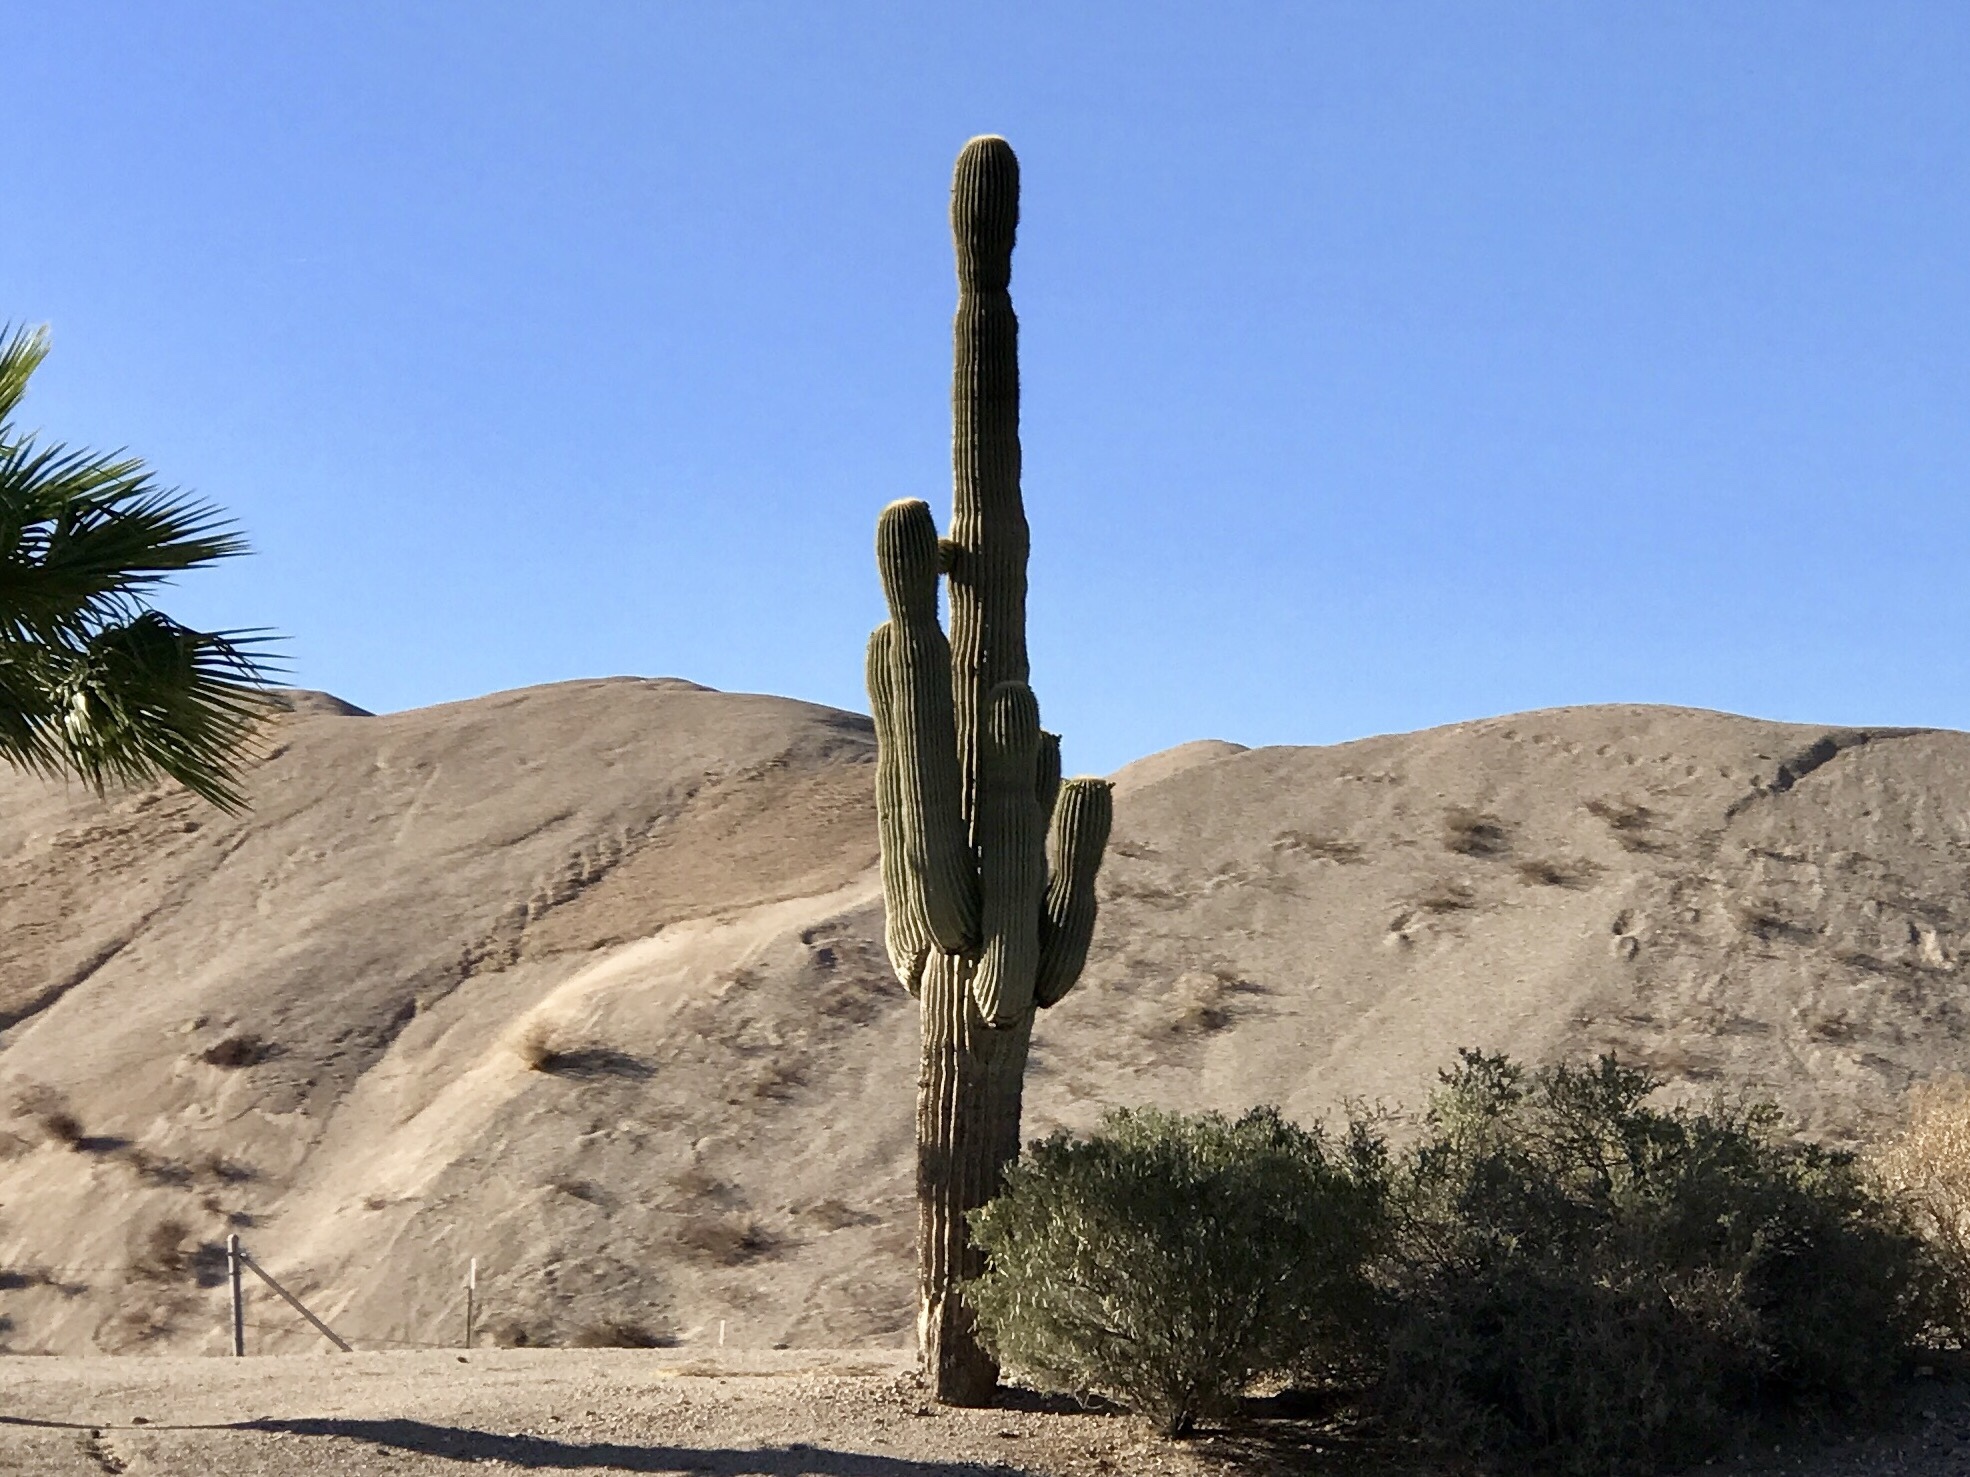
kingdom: Plantae
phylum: Tracheophyta
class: Magnoliopsida
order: Caryophyllales
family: Cactaceae
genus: Carnegiea
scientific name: Carnegiea gigantea
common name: Saguaro
